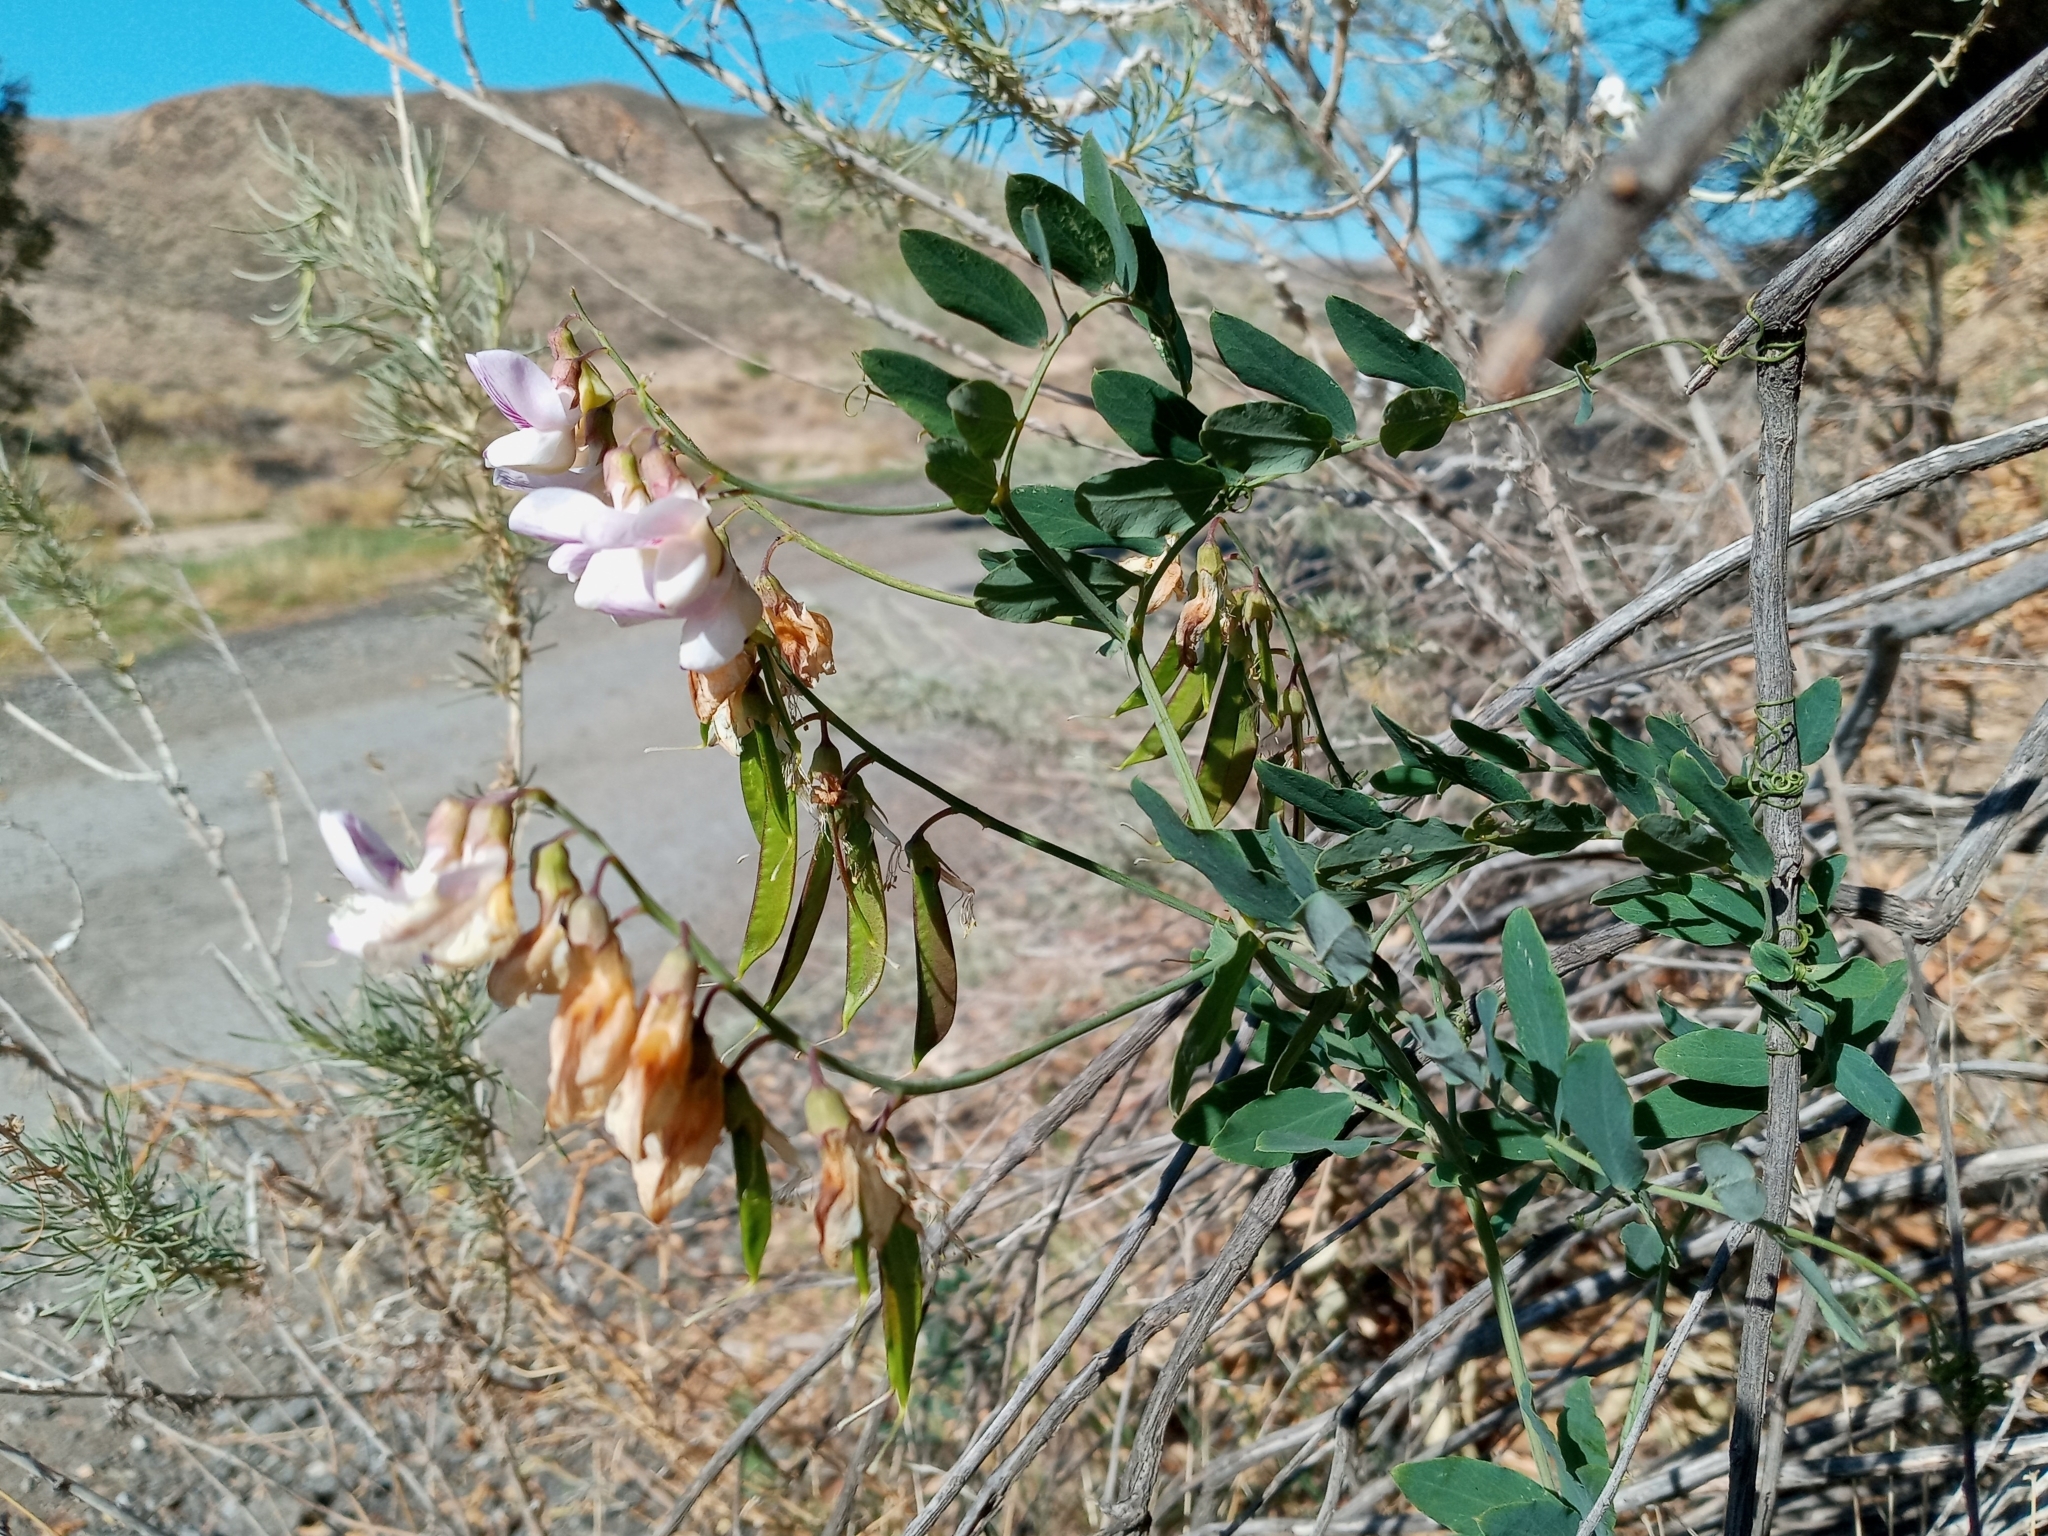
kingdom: Plantae
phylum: Tracheophyta
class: Magnoliopsida
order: Fabales
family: Fabaceae
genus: Lathyrus
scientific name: Lathyrus vestitus
